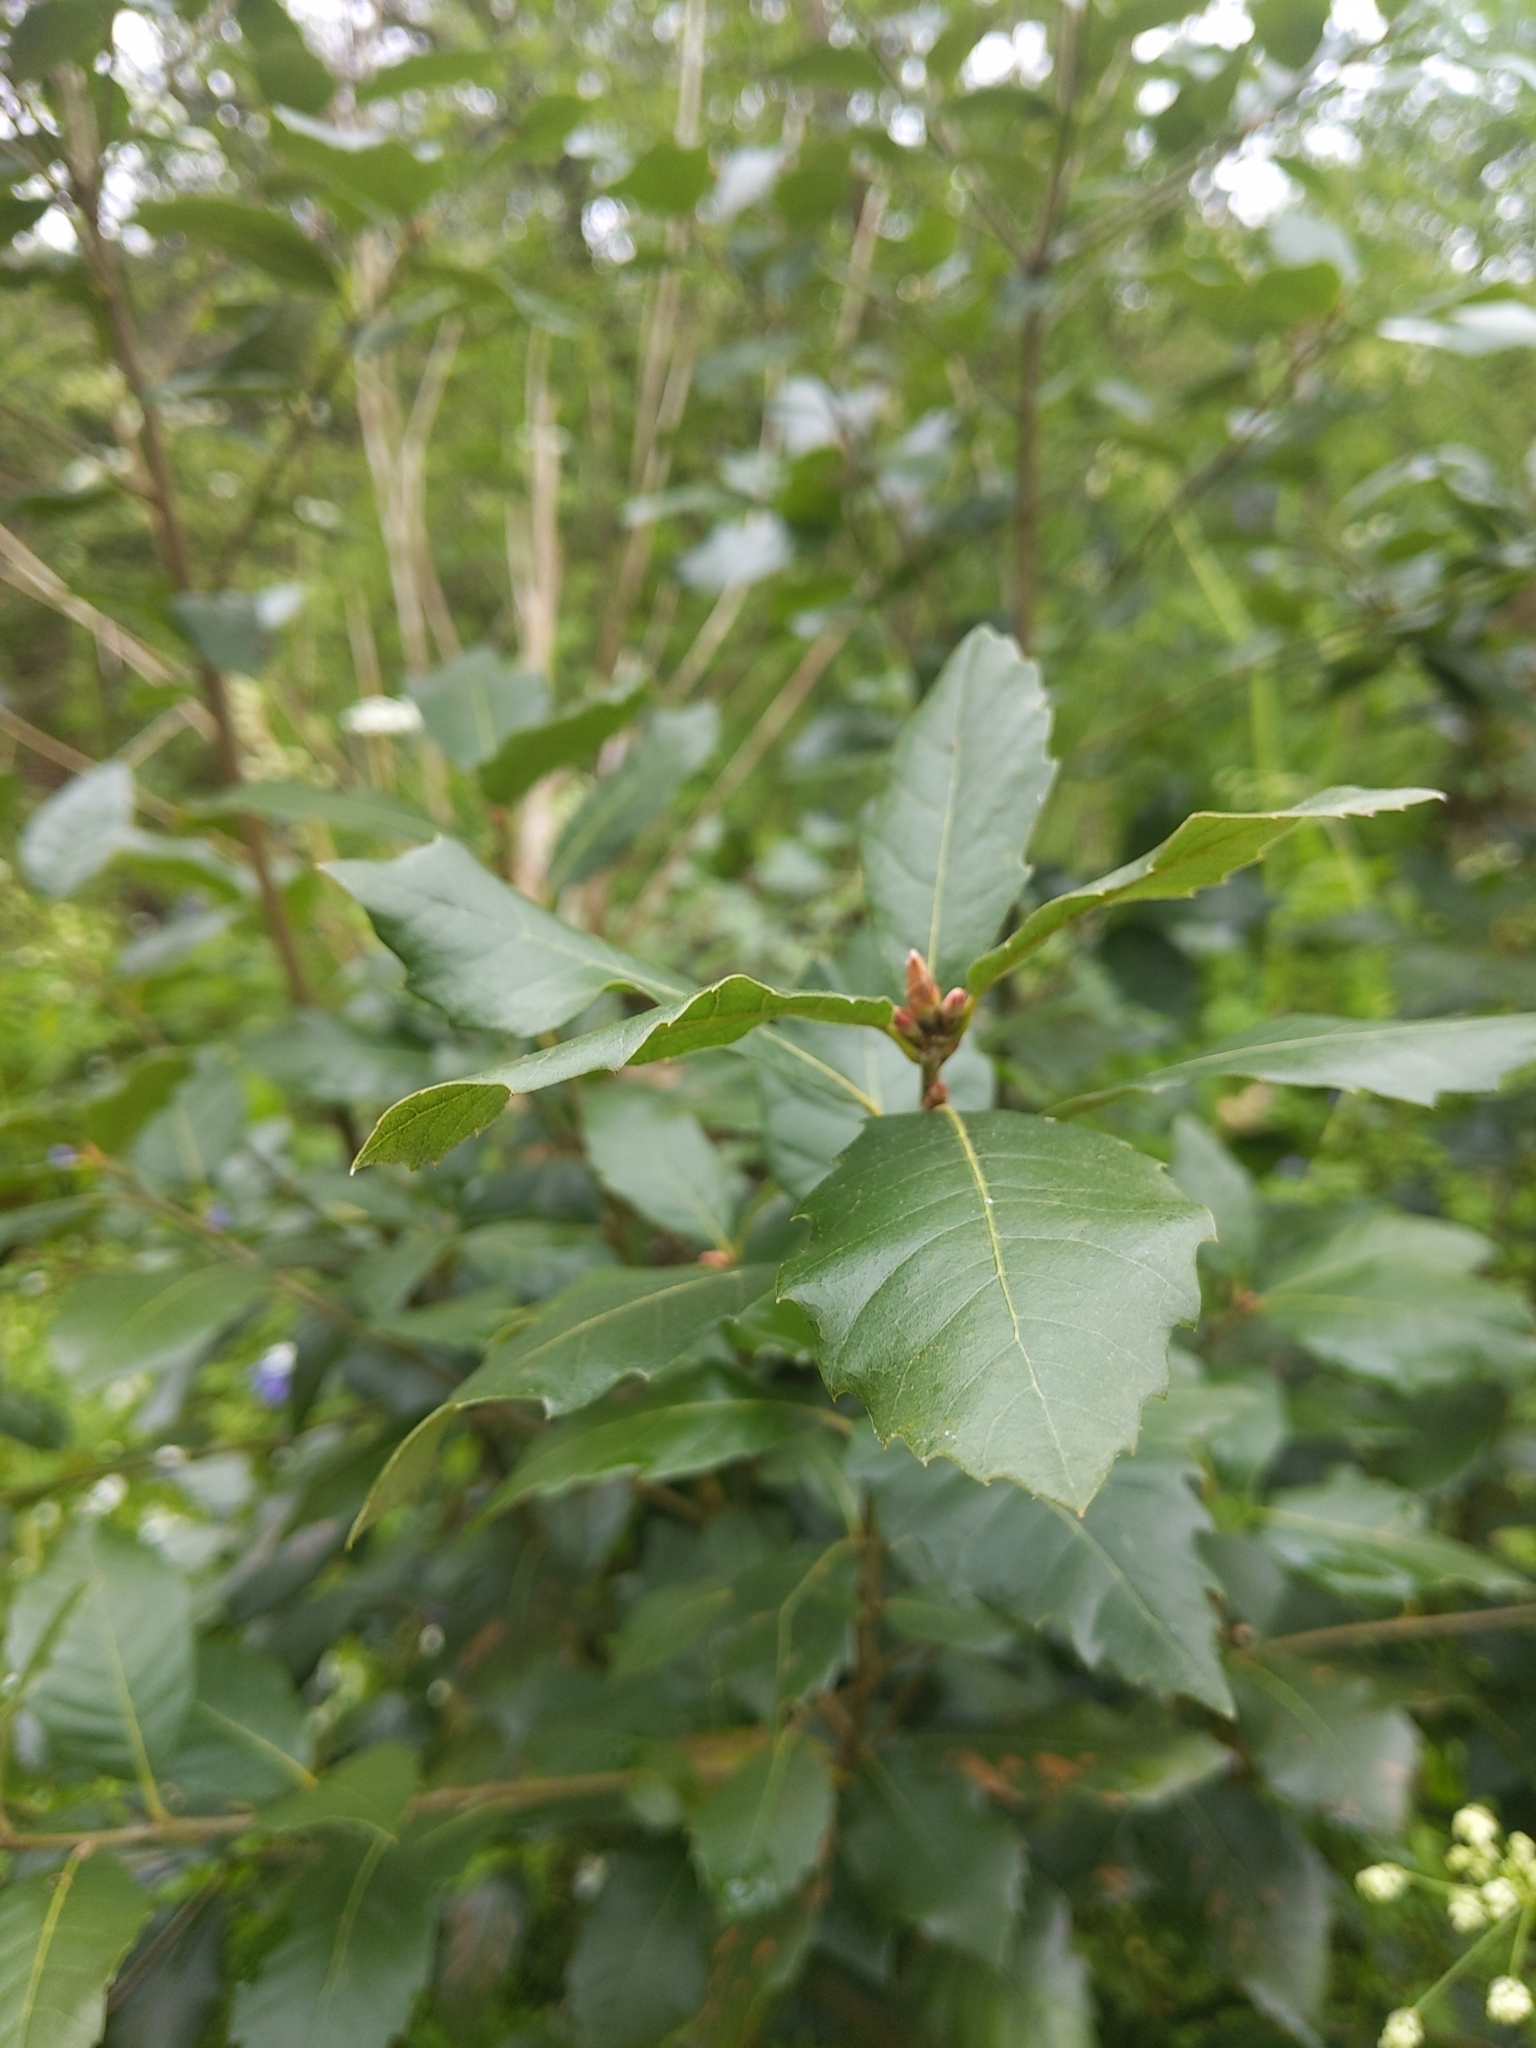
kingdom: Plantae
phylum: Tracheophyta
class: Magnoliopsida
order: Fagales
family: Fagaceae
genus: Quercus
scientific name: Quercus ilex
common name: Evergreen oak
